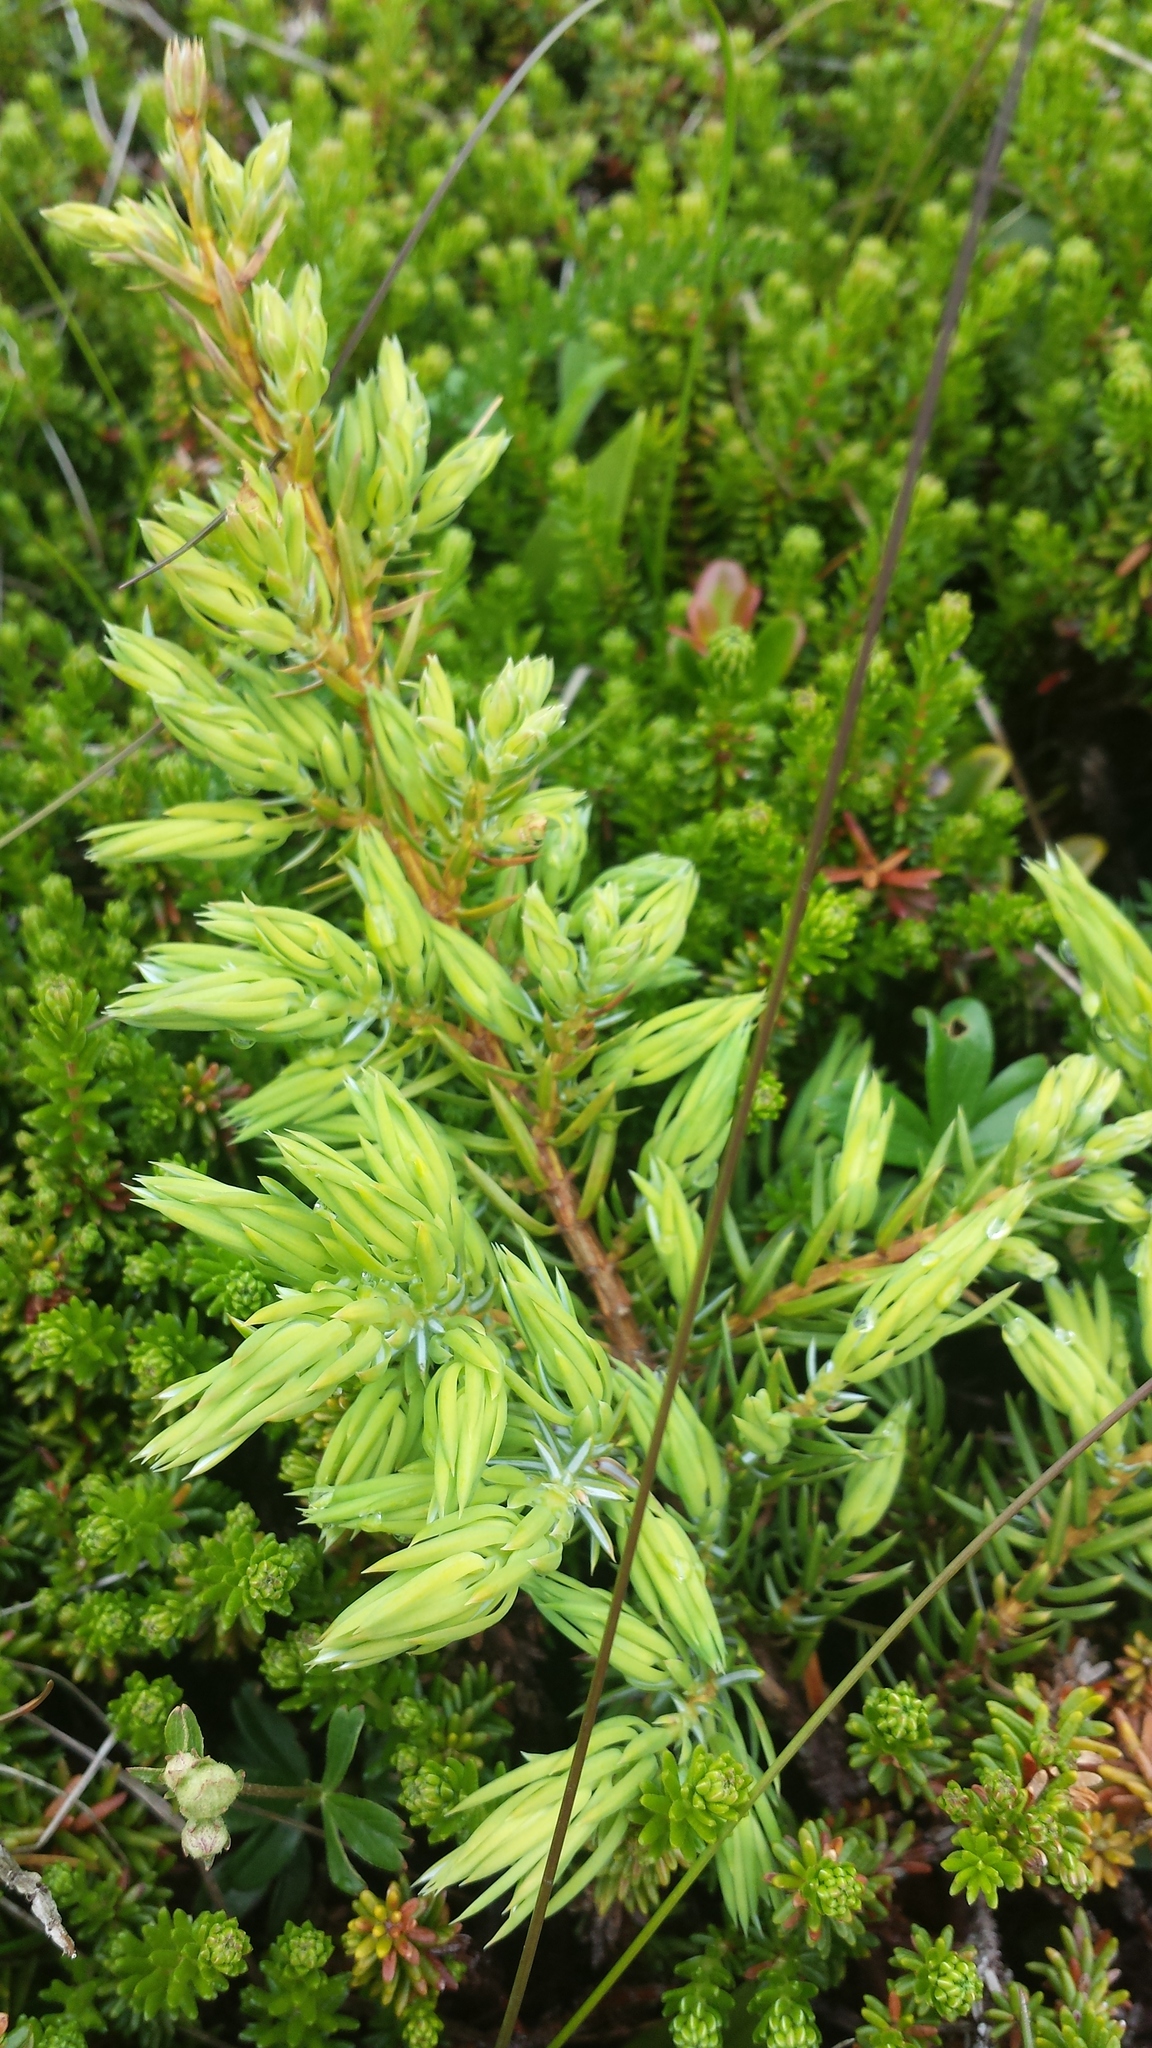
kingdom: Plantae
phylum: Tracheophyta
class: Pinopsida
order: Pinales
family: Cupressaceae
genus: Juniperus
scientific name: Juniperus communis
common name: Common juniper
